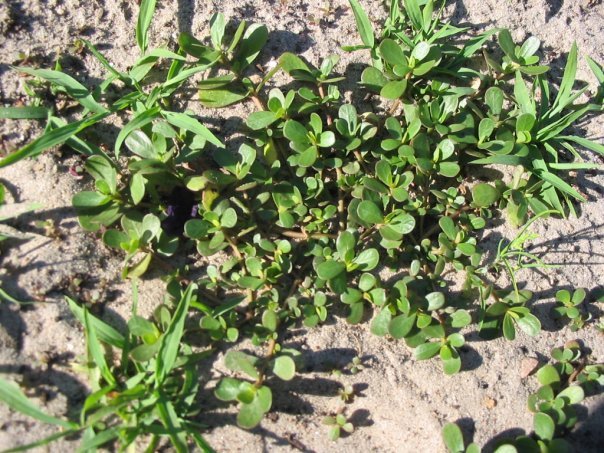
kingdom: Plantae
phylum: Tracheophyta
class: Magnoliopsida
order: Caryophyllales
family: Portulacaceae
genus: Portulaca
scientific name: Portulaca oleracea
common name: Common purslane
